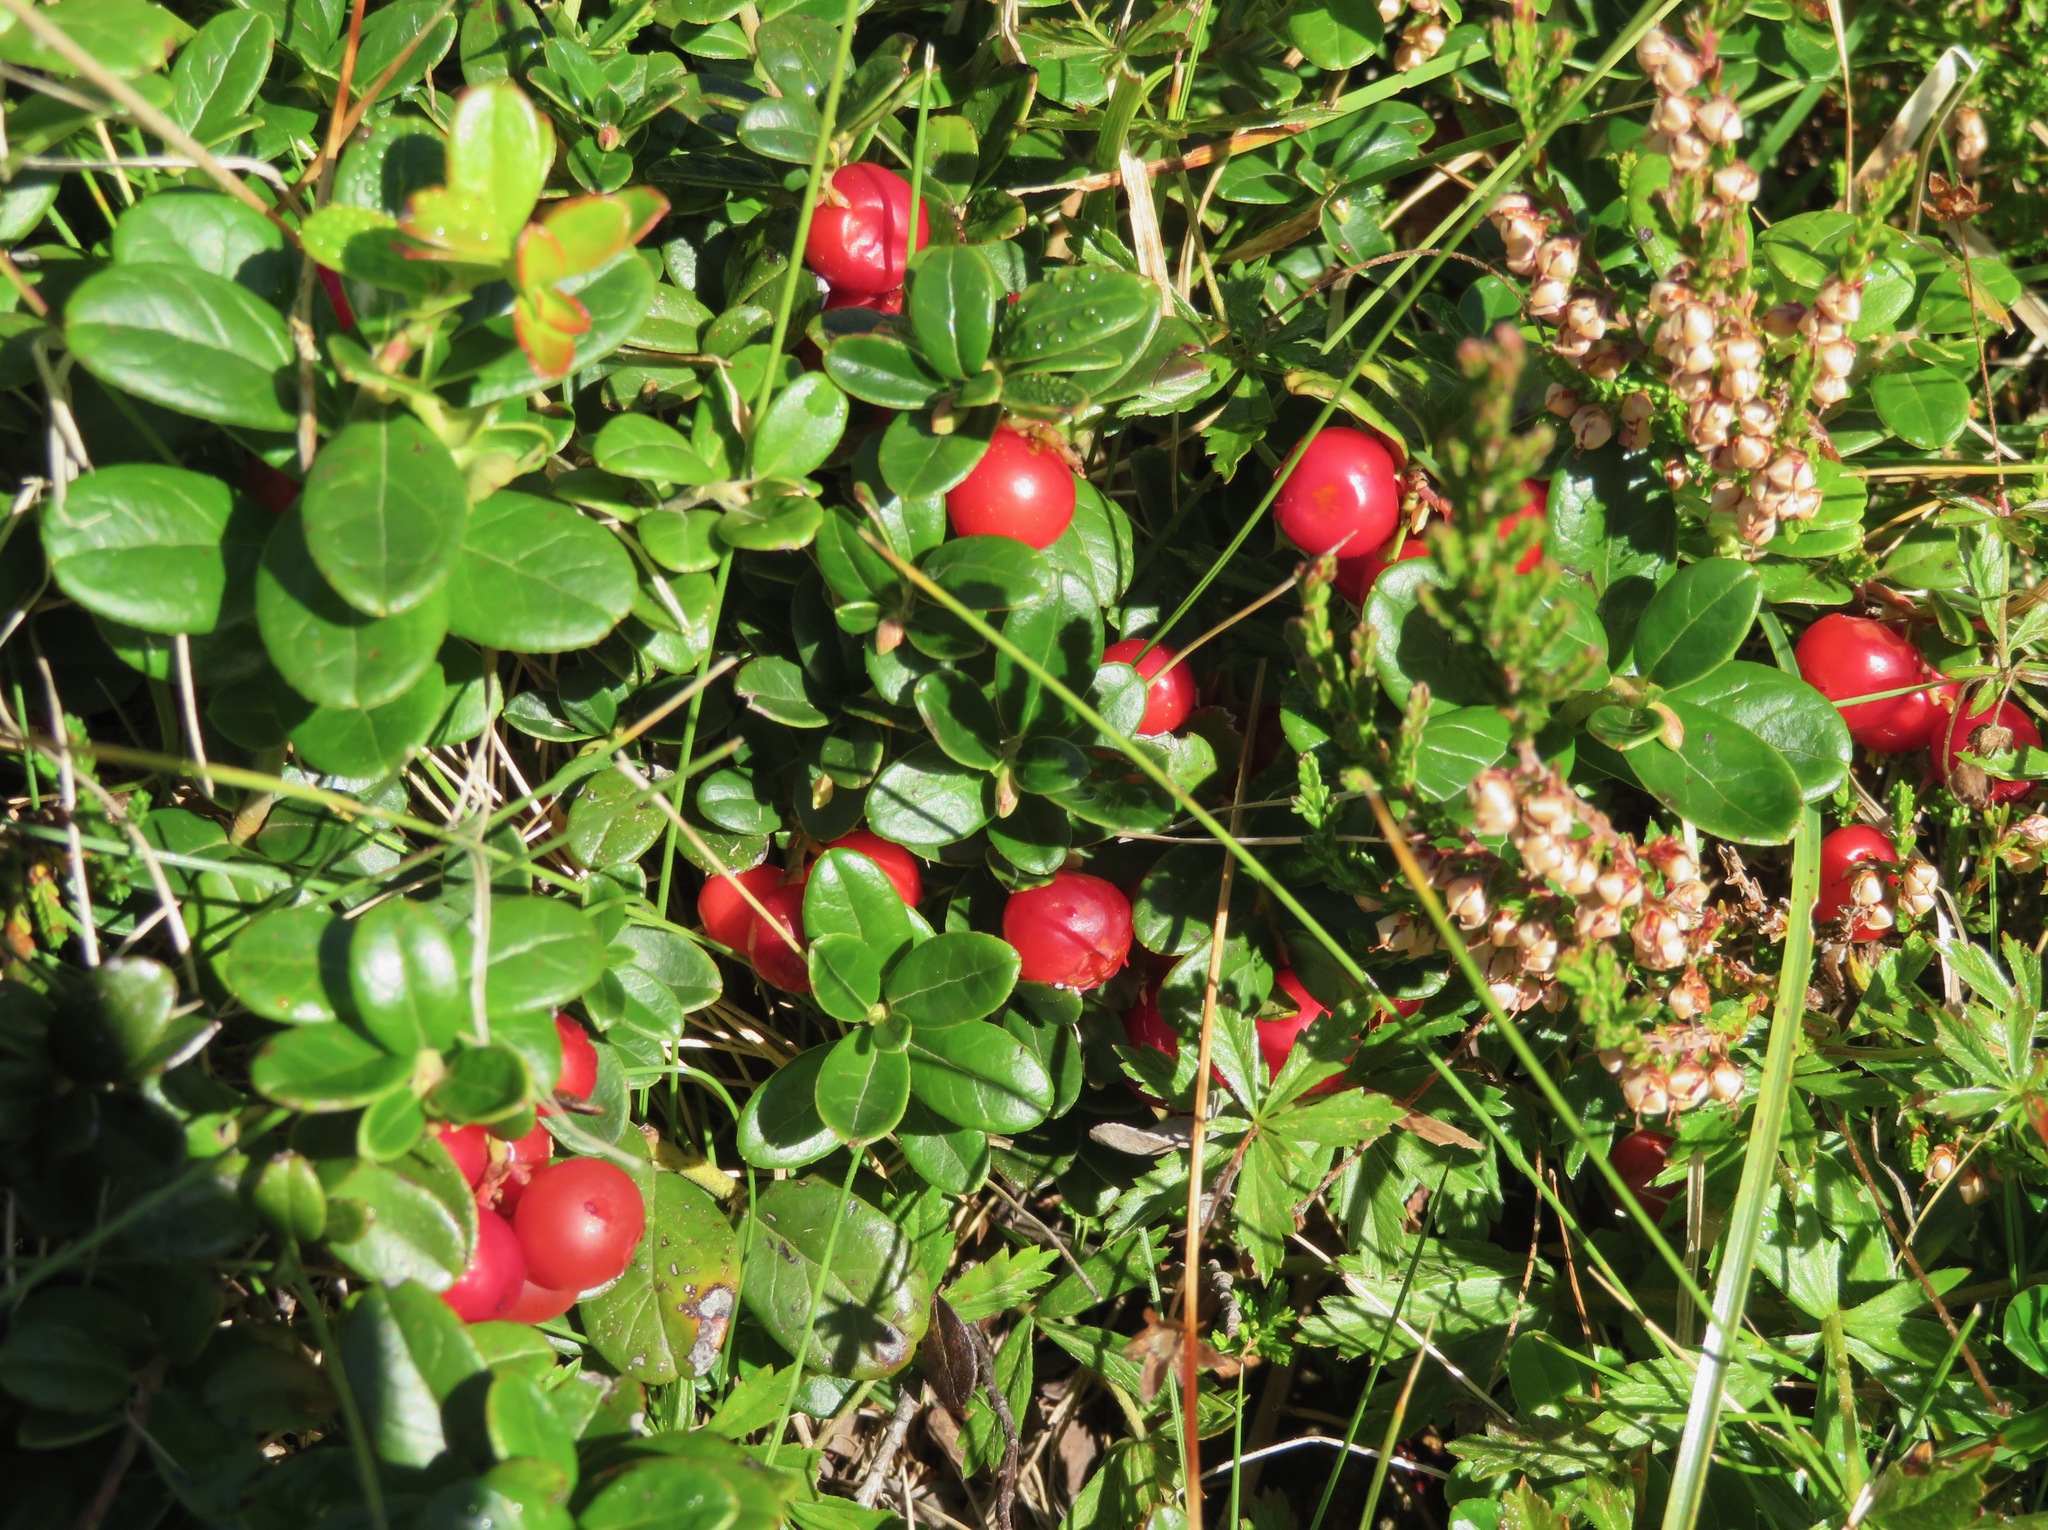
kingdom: Plantae
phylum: Tracheophyta
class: Magnoliopsida
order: Ericales
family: Ericaceae
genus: Vaccinium
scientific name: Vaccinium vitis-idaea
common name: Cowberry
